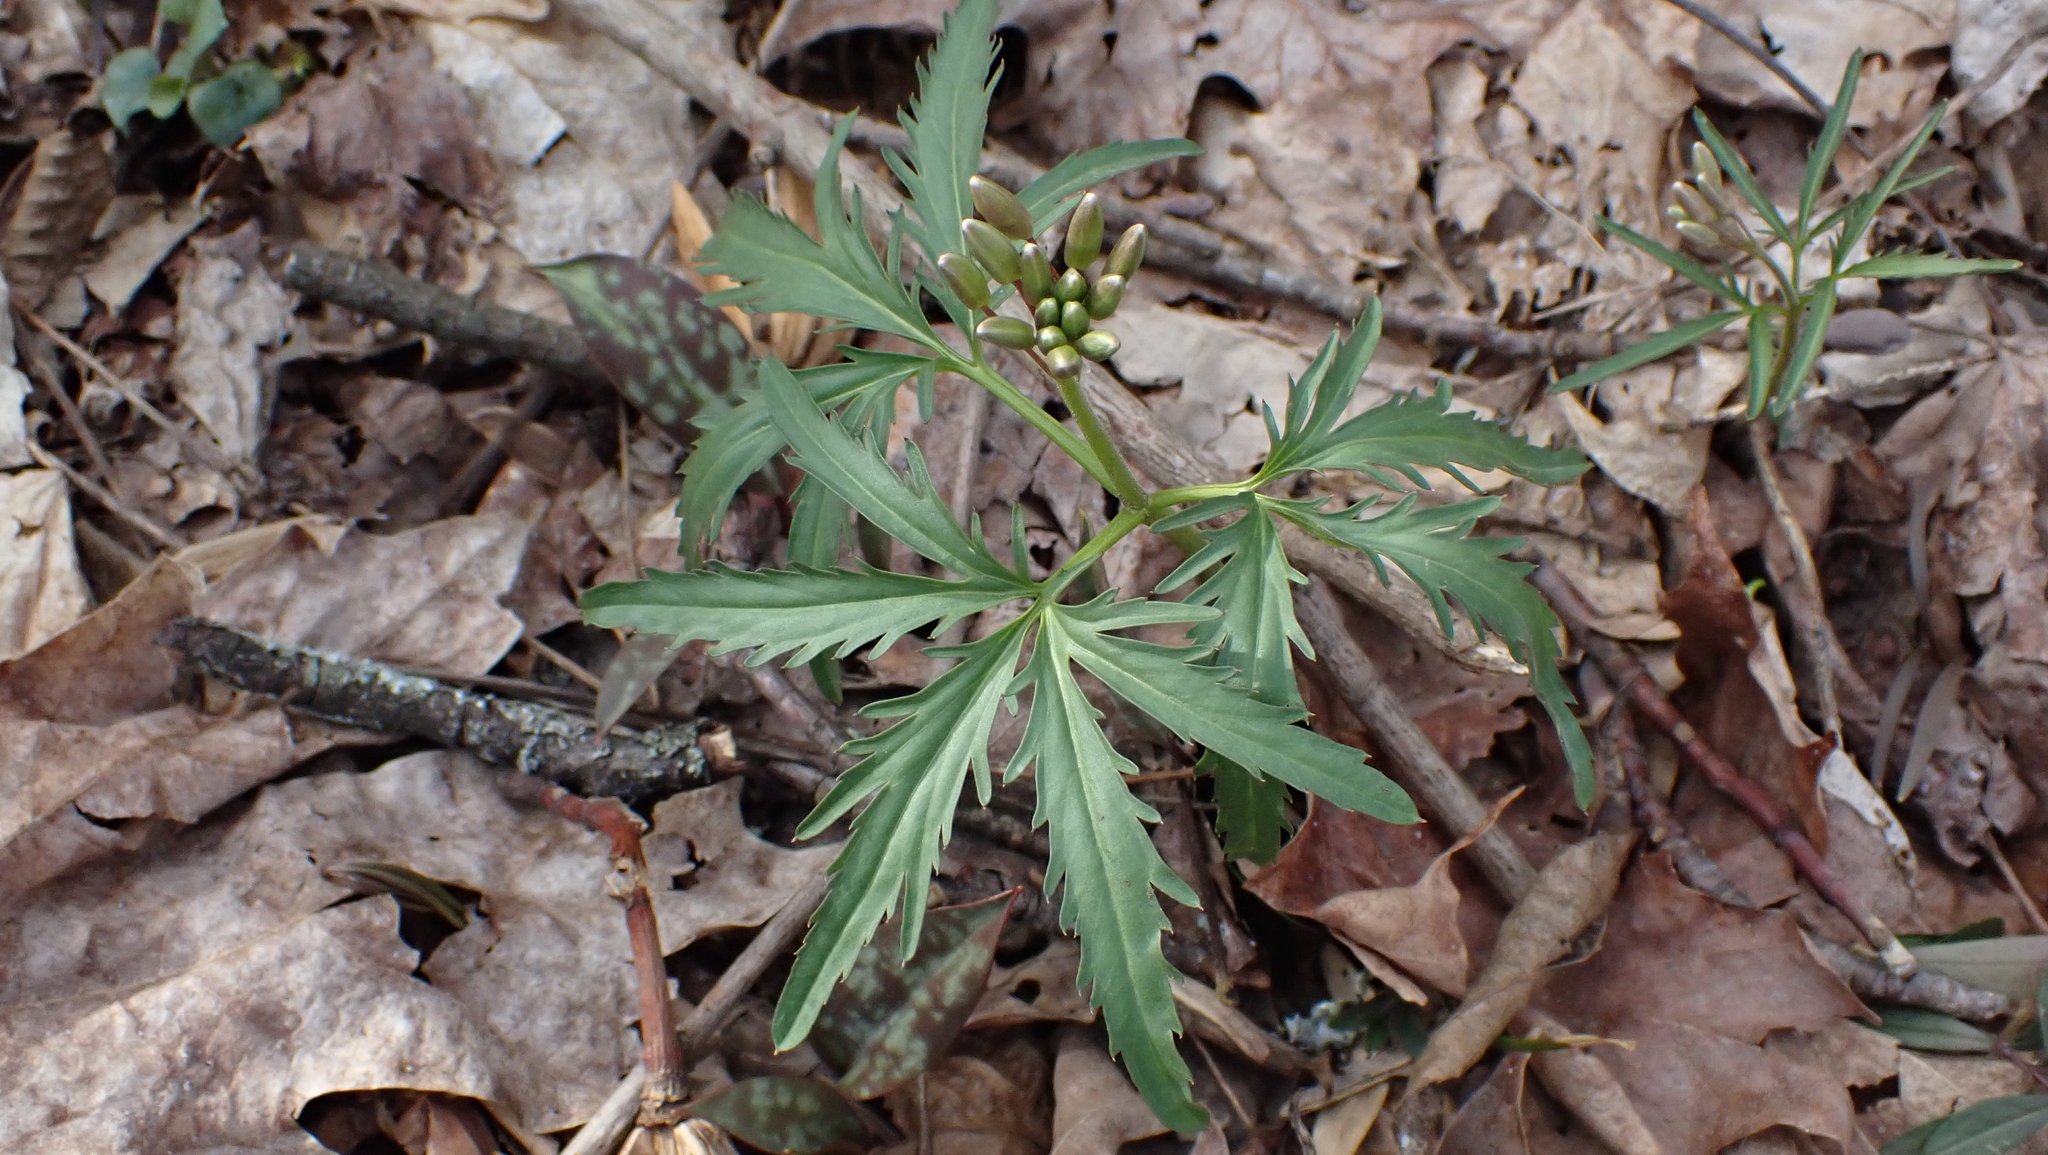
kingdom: Plantae
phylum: Tracheophyta
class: Magnoliopsida
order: Brassicales
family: Brassicaceae
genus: Cardamine
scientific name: Cardamine concatenata
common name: Cut-leaf toothcup
